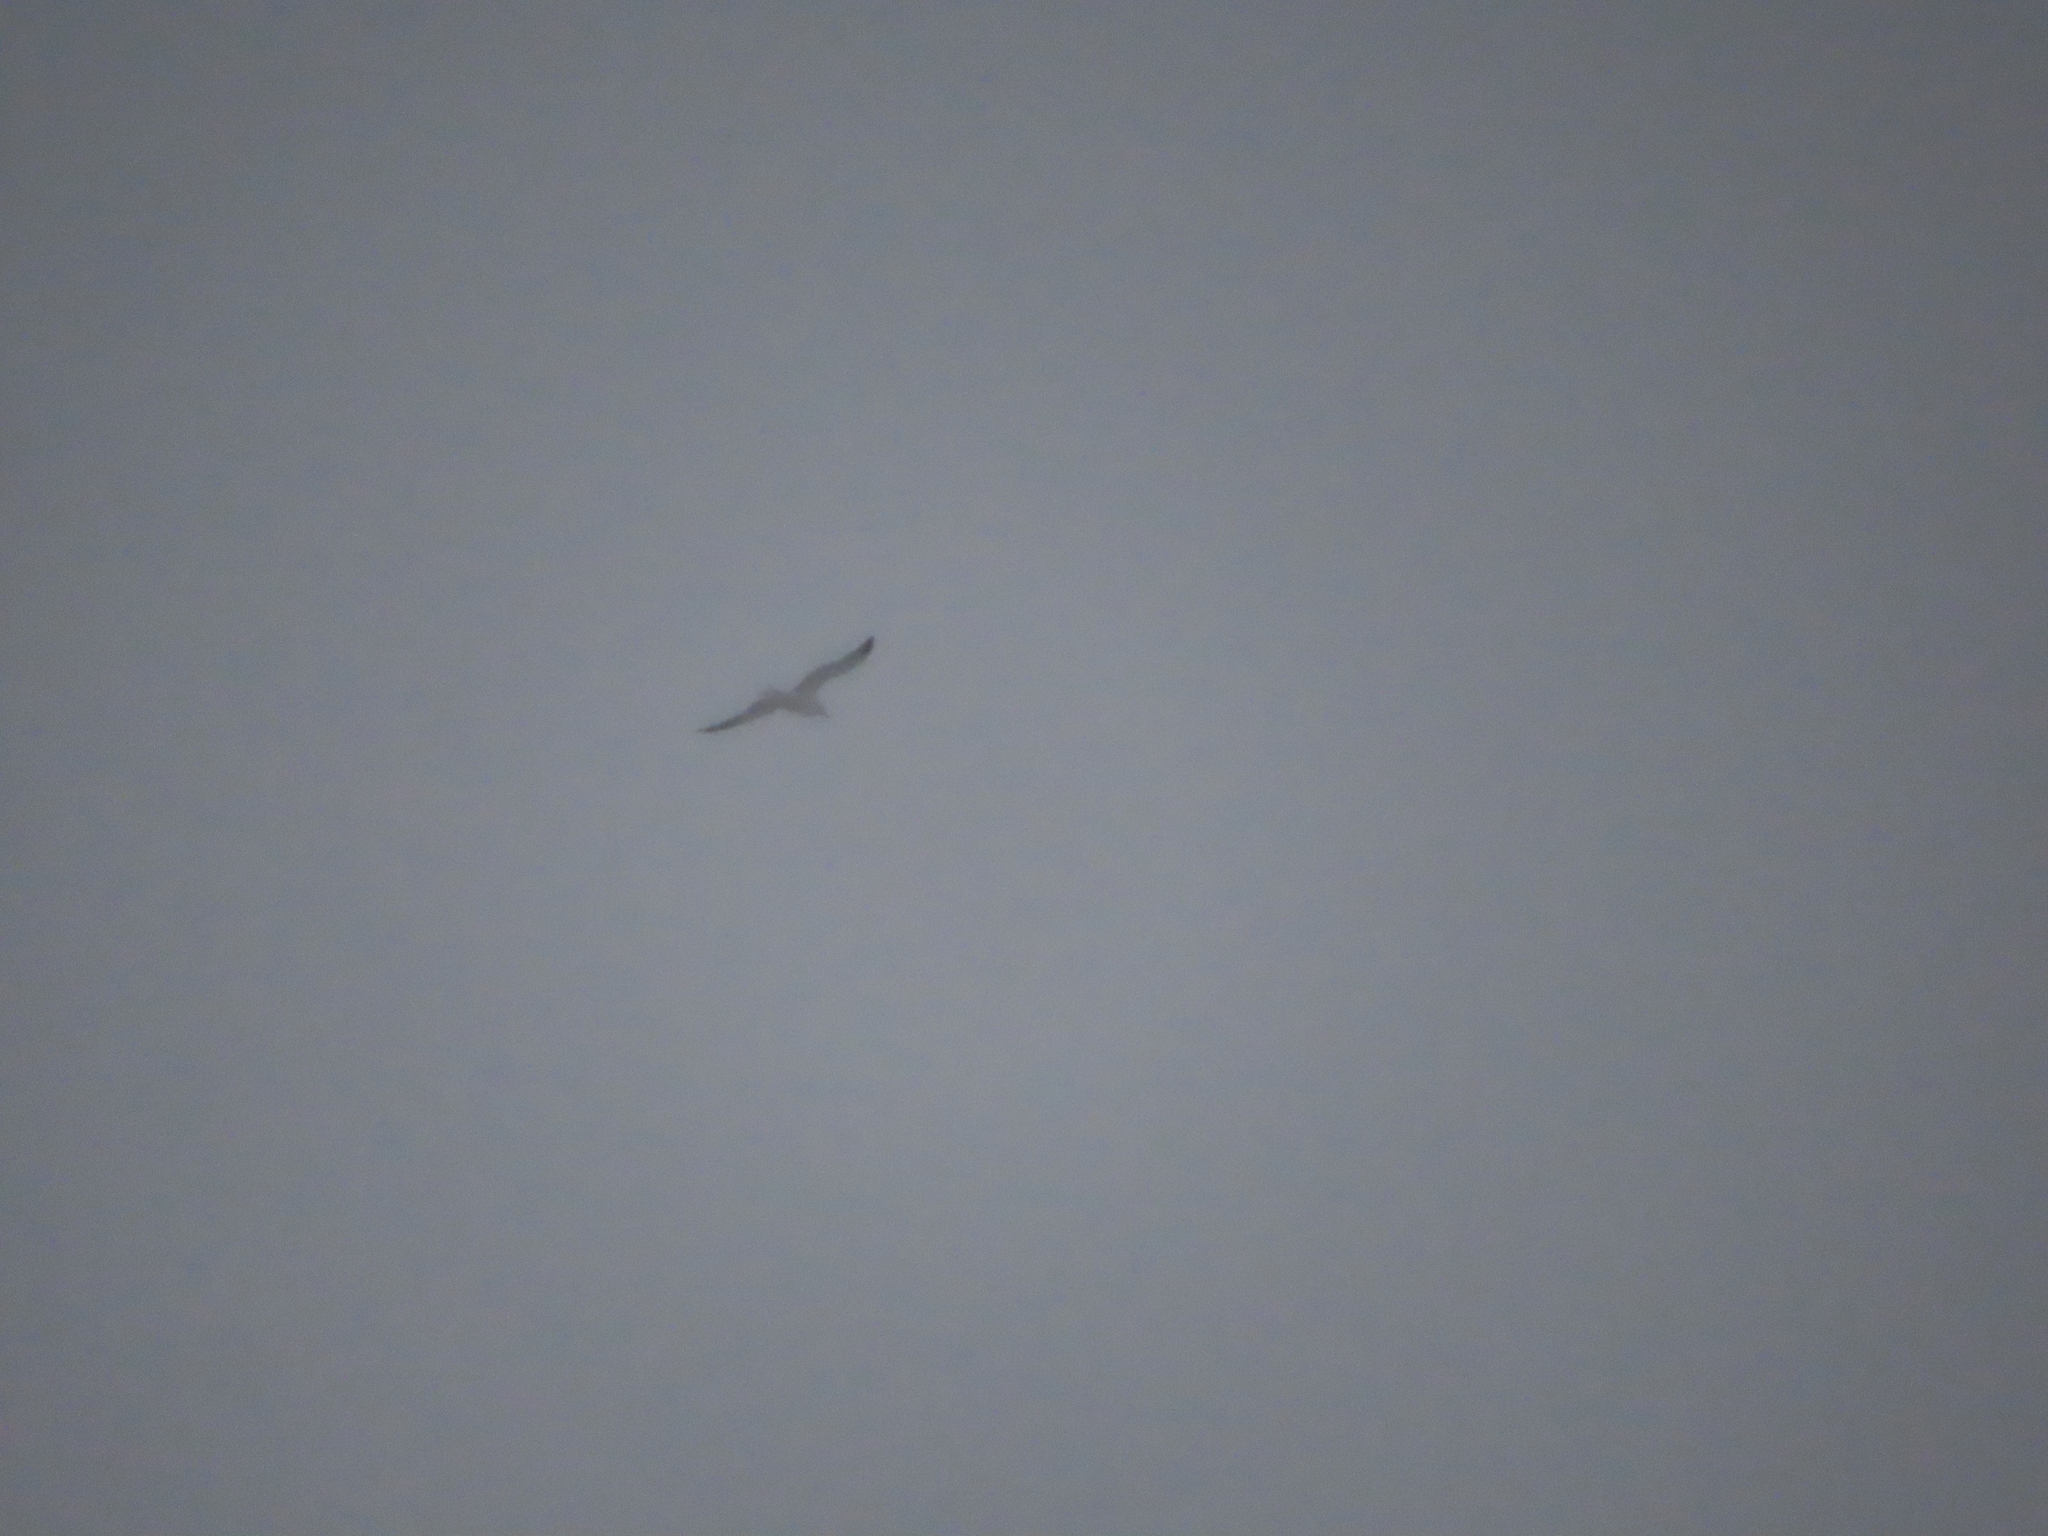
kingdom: Animalia
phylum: Chordata
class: Aves
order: Charadriiformes
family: Laridae
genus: Larus
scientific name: Larus delawarensis
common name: Ring-billed gull
